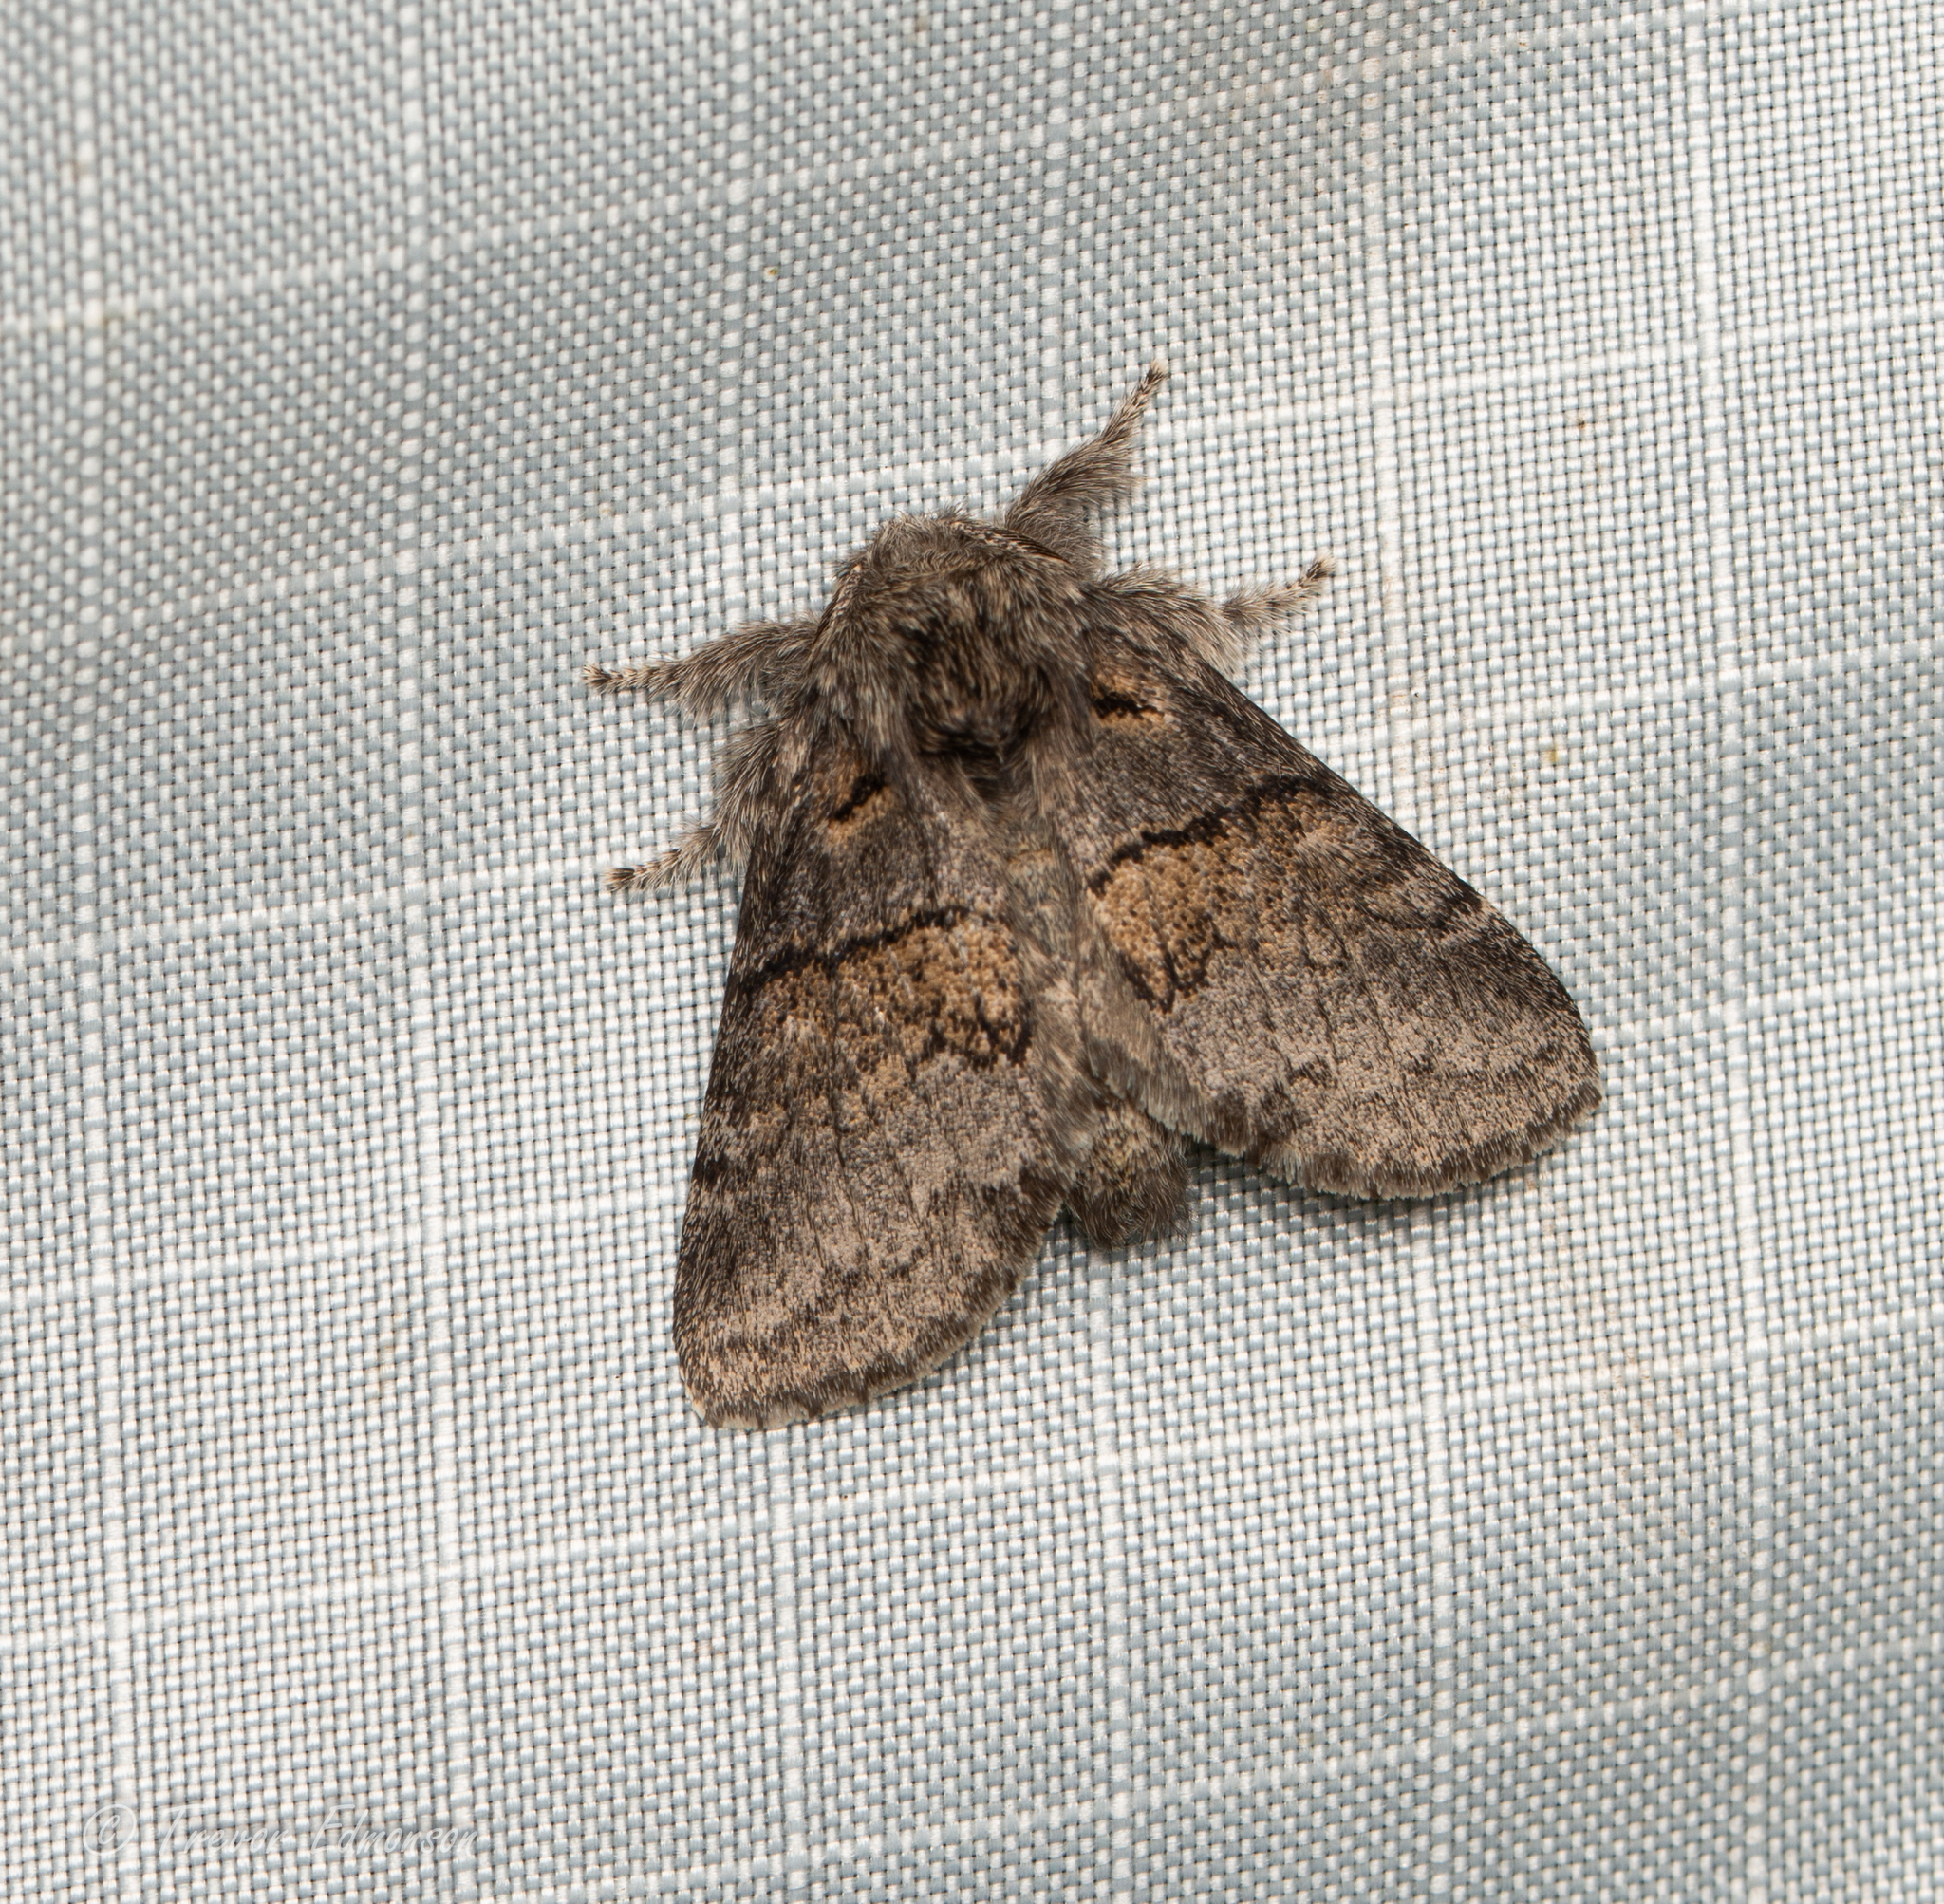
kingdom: Animalia
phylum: Arthropoda
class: Insecta
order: Lepidoptera
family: Notodontidae
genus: Gluphisia
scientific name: Gluphisia septentrionis
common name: Common gluphisia
